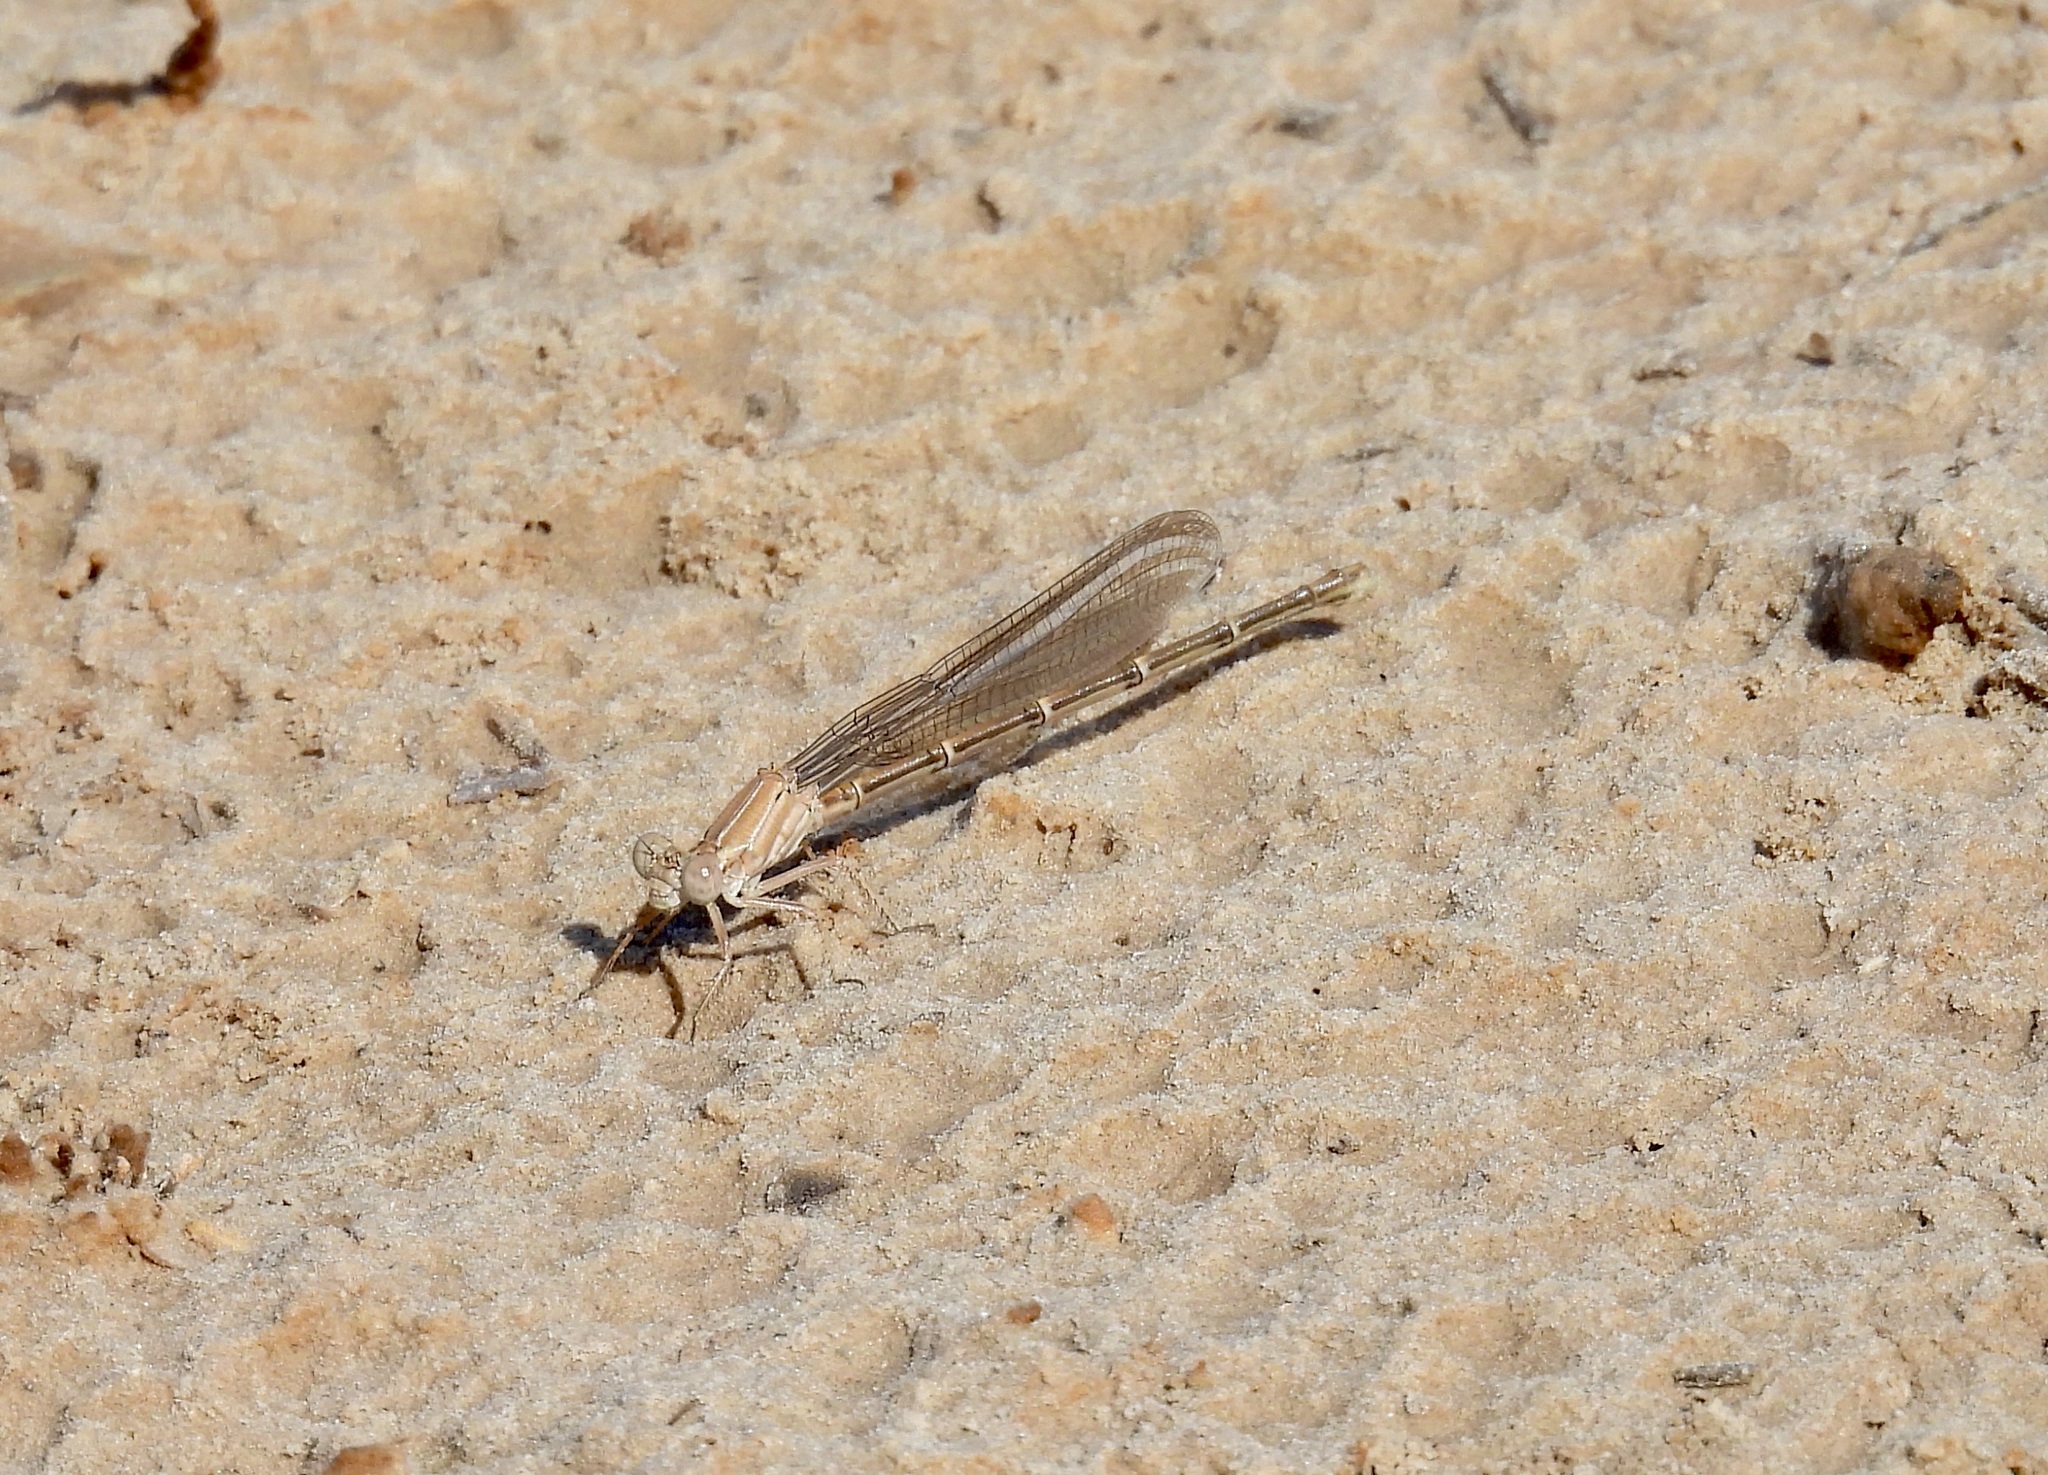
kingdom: Animalia
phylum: Arthropoda
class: Insecta
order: Odonata
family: Coenagrionidae
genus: Argia
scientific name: Argia moesta
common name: Powdered dancer
